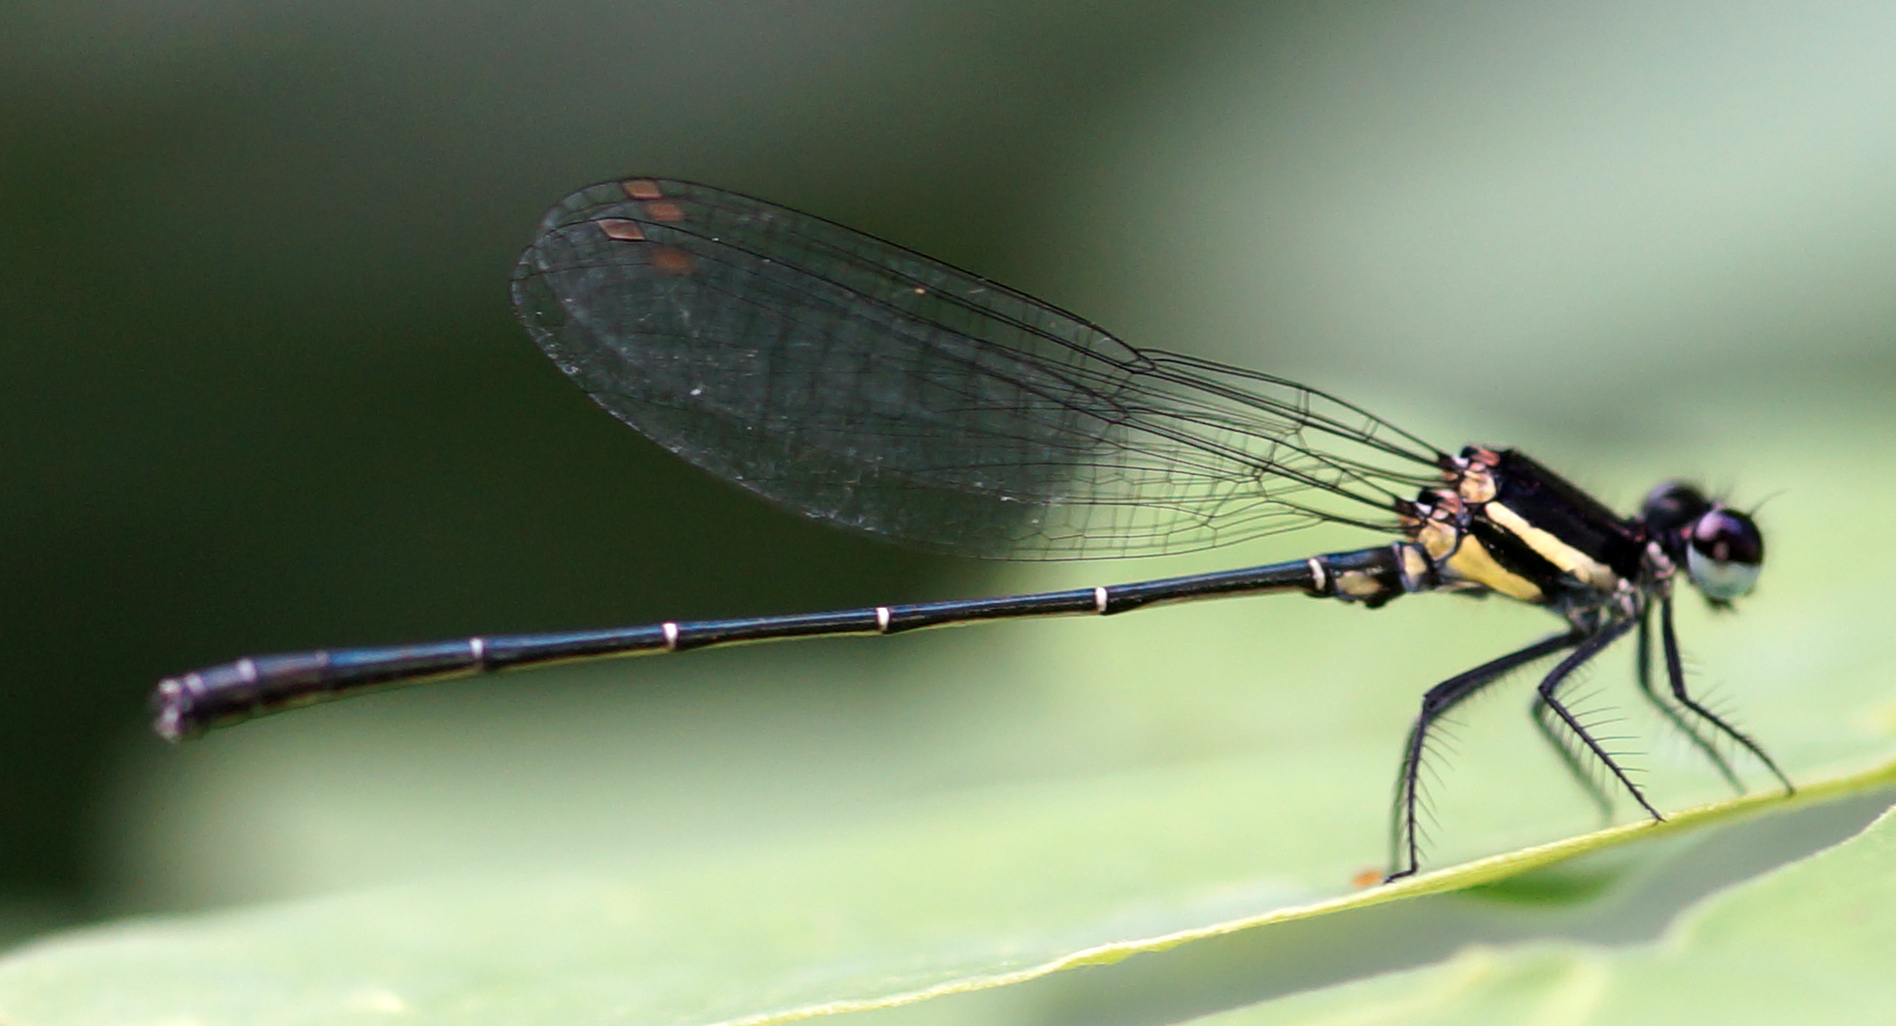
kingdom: Animalia
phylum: Arthropoda
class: Insecta
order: Odonata
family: Platycnemididae
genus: Onychargia
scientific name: Onychargia atrocyana
